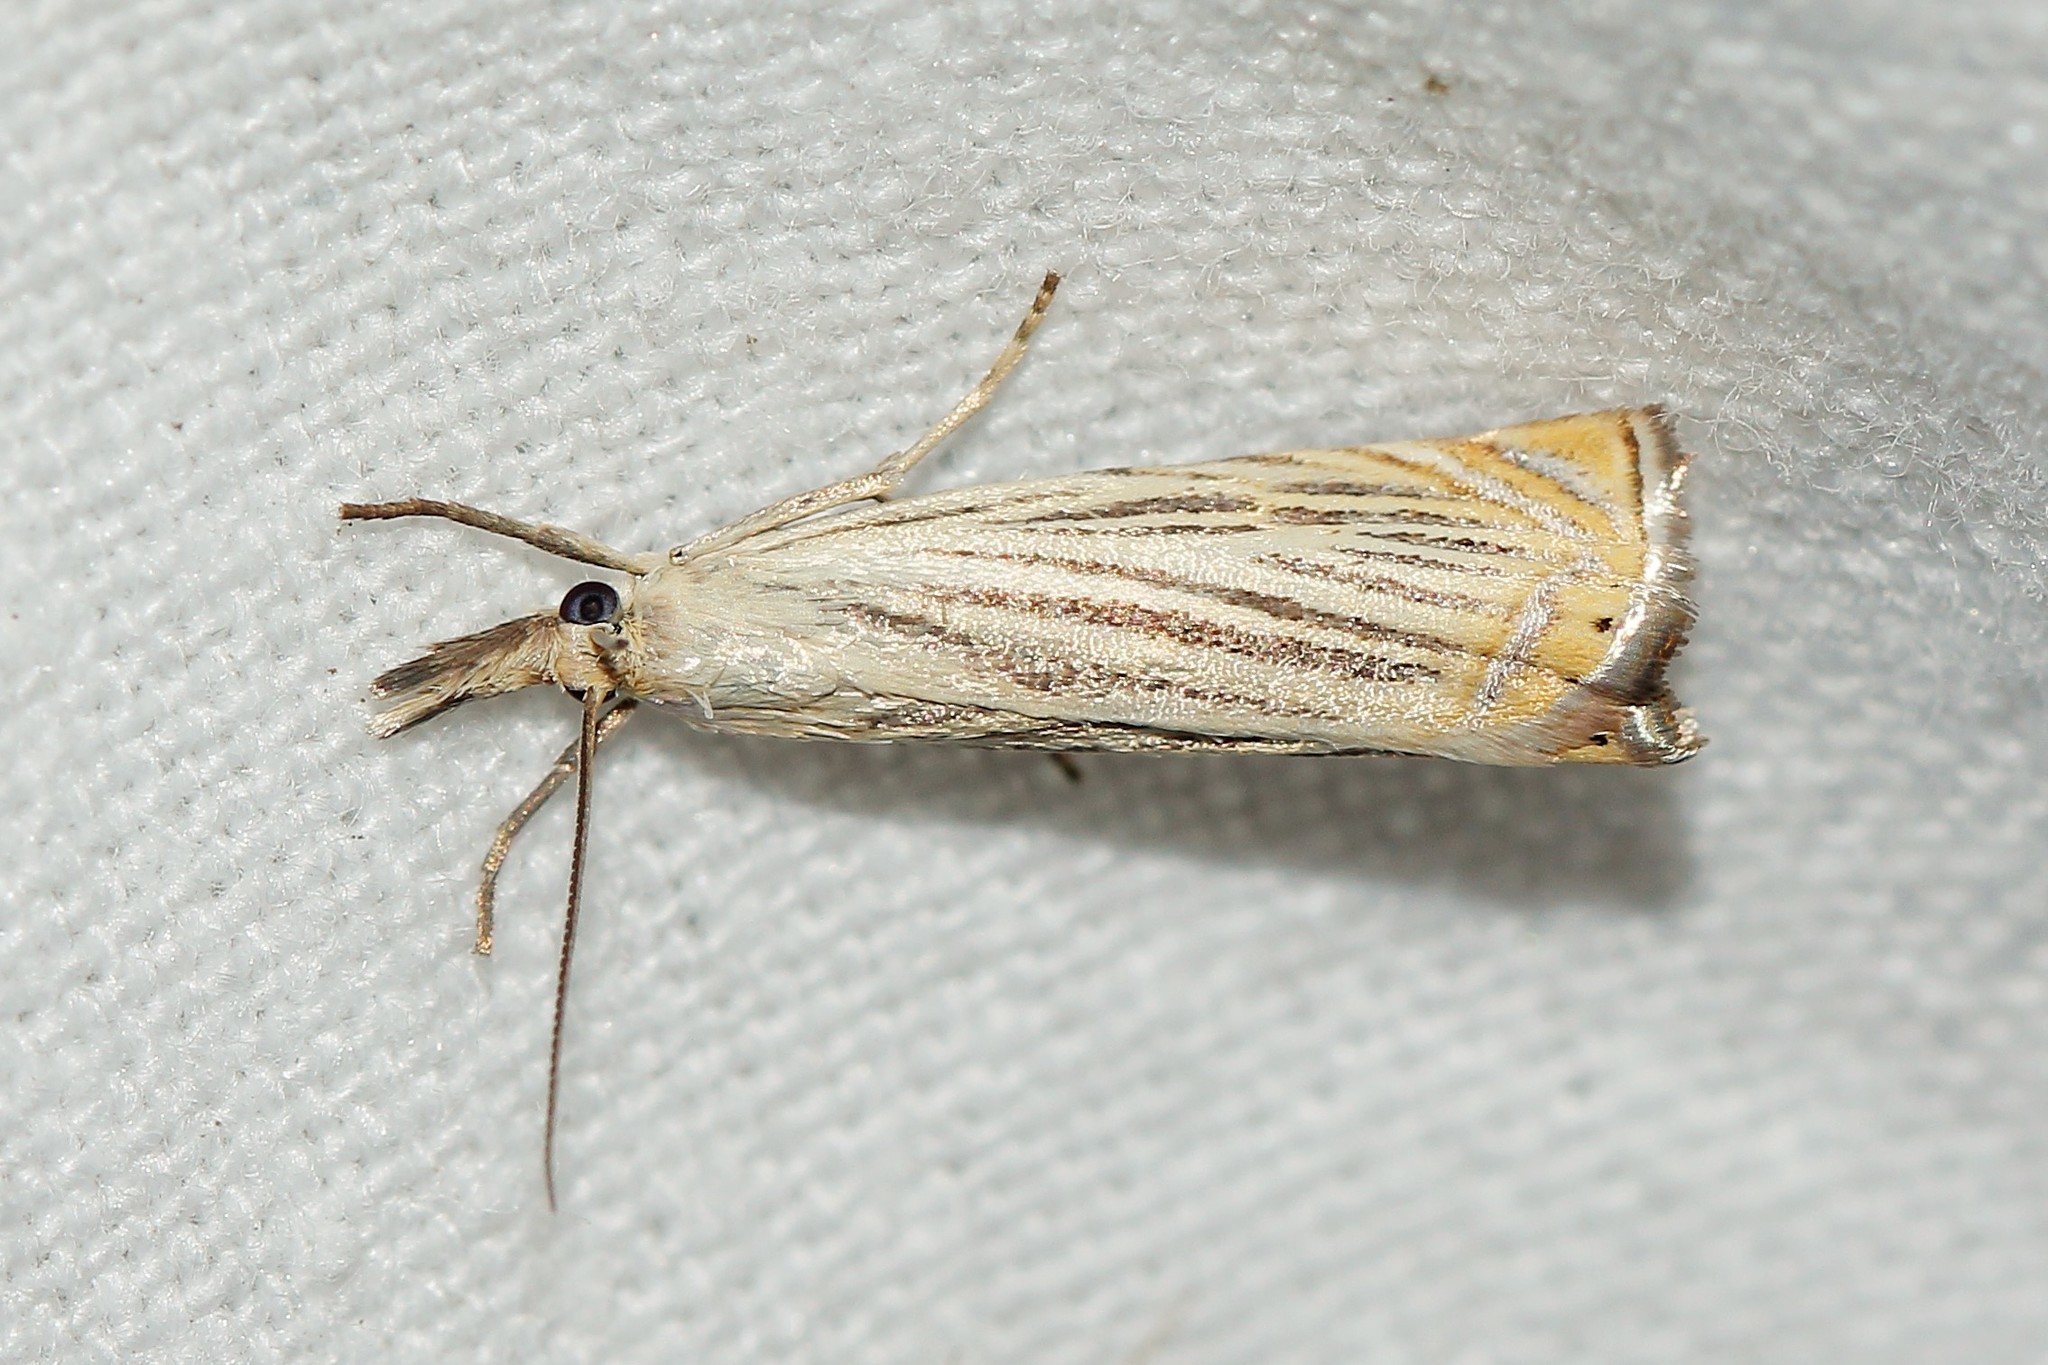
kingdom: Animalia
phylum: Arthropoda
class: Insecta
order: Lepidoptera
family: Crambidae
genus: Chrysoteuchia
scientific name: Chrysoteuchia culmella
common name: Garden grass-veneer
